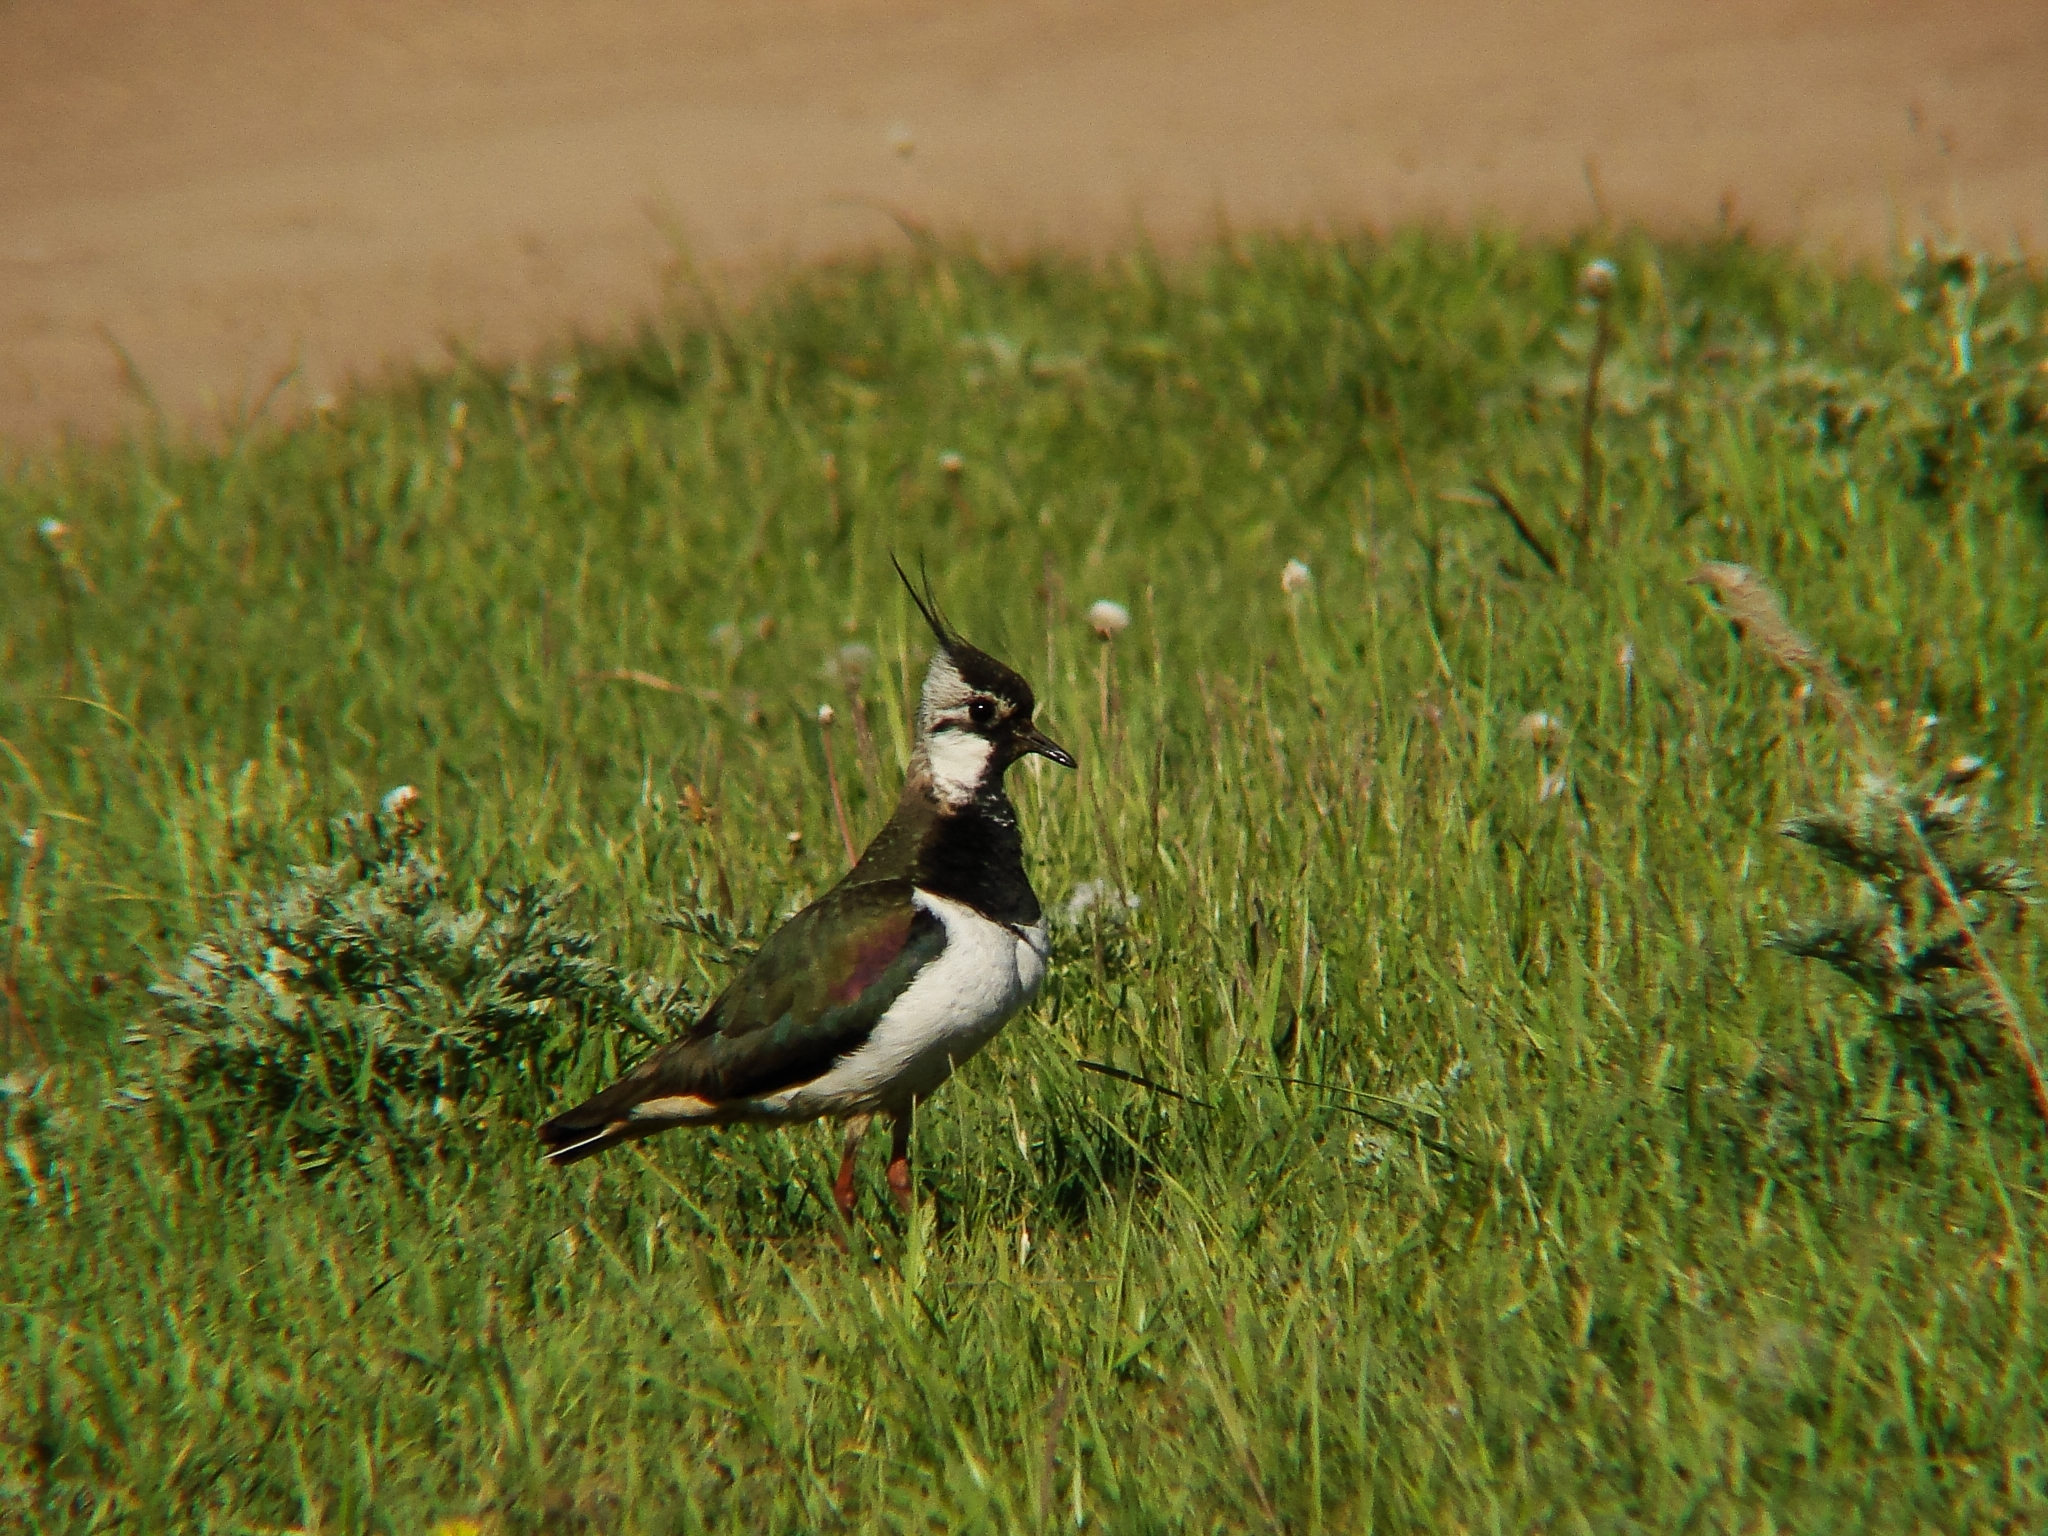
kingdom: Animalia
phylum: Chordata
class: Aves
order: Charadriiformes
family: Charadriidae
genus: Vanellus
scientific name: Vanellus vanellus
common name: Northern lapwing
